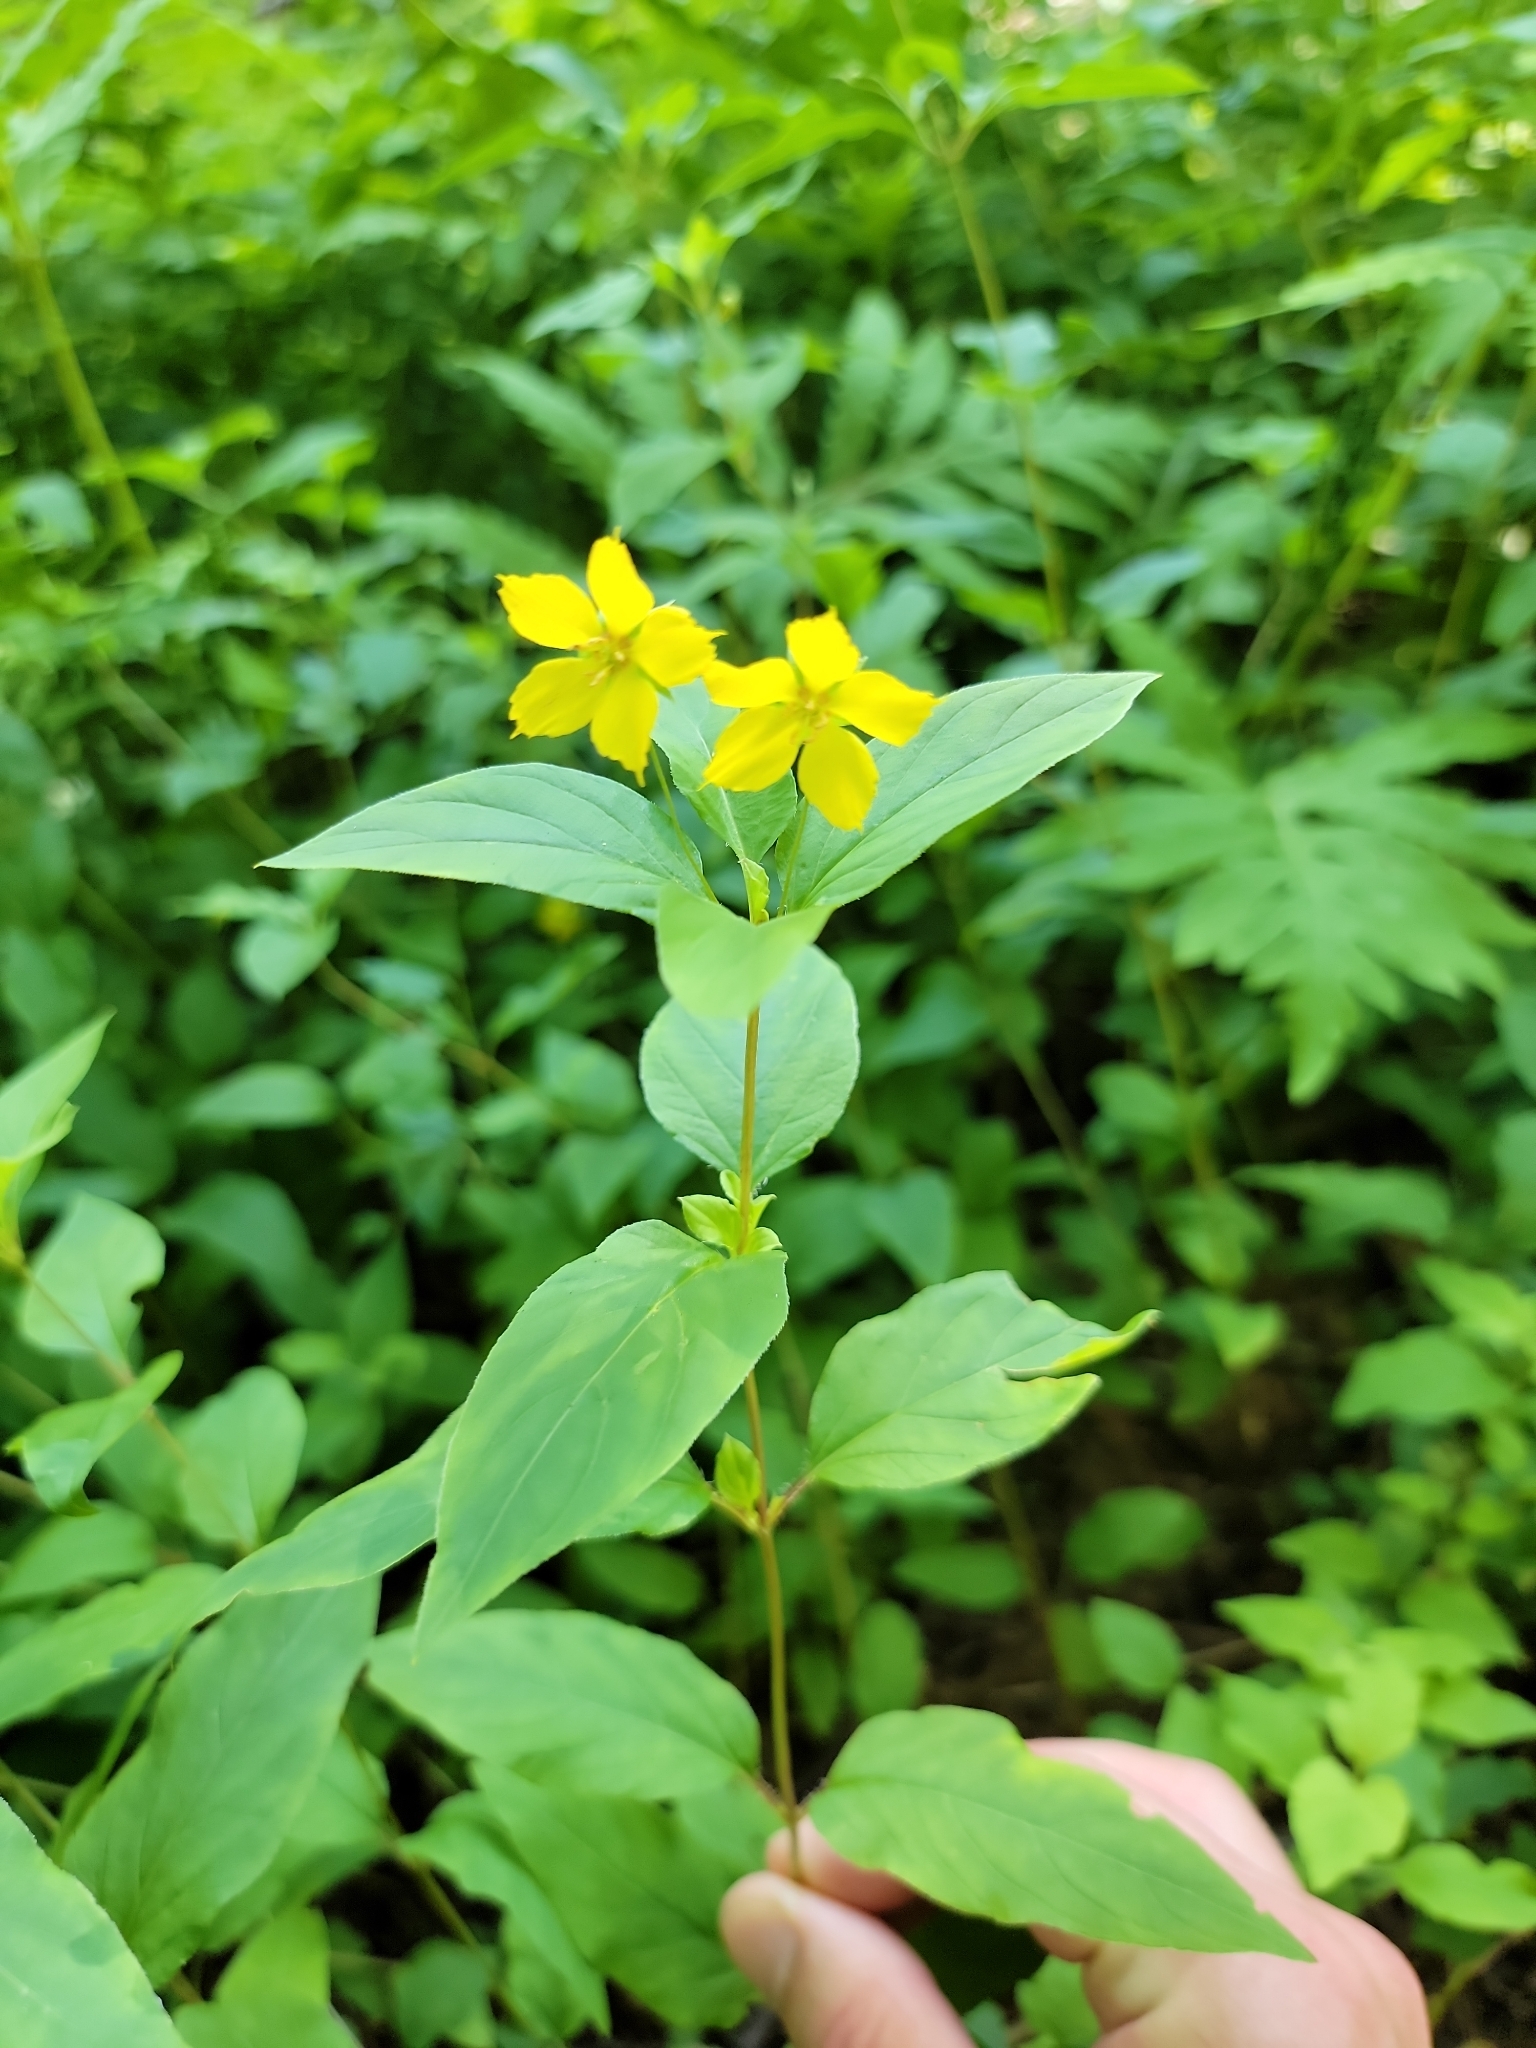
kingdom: Plantae
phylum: Tracheophyta
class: Magnoliopsida
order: Ericales
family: Primulaceae
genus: Lysimachia
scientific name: Lysimachia ciliata
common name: Fringed loosestrife
